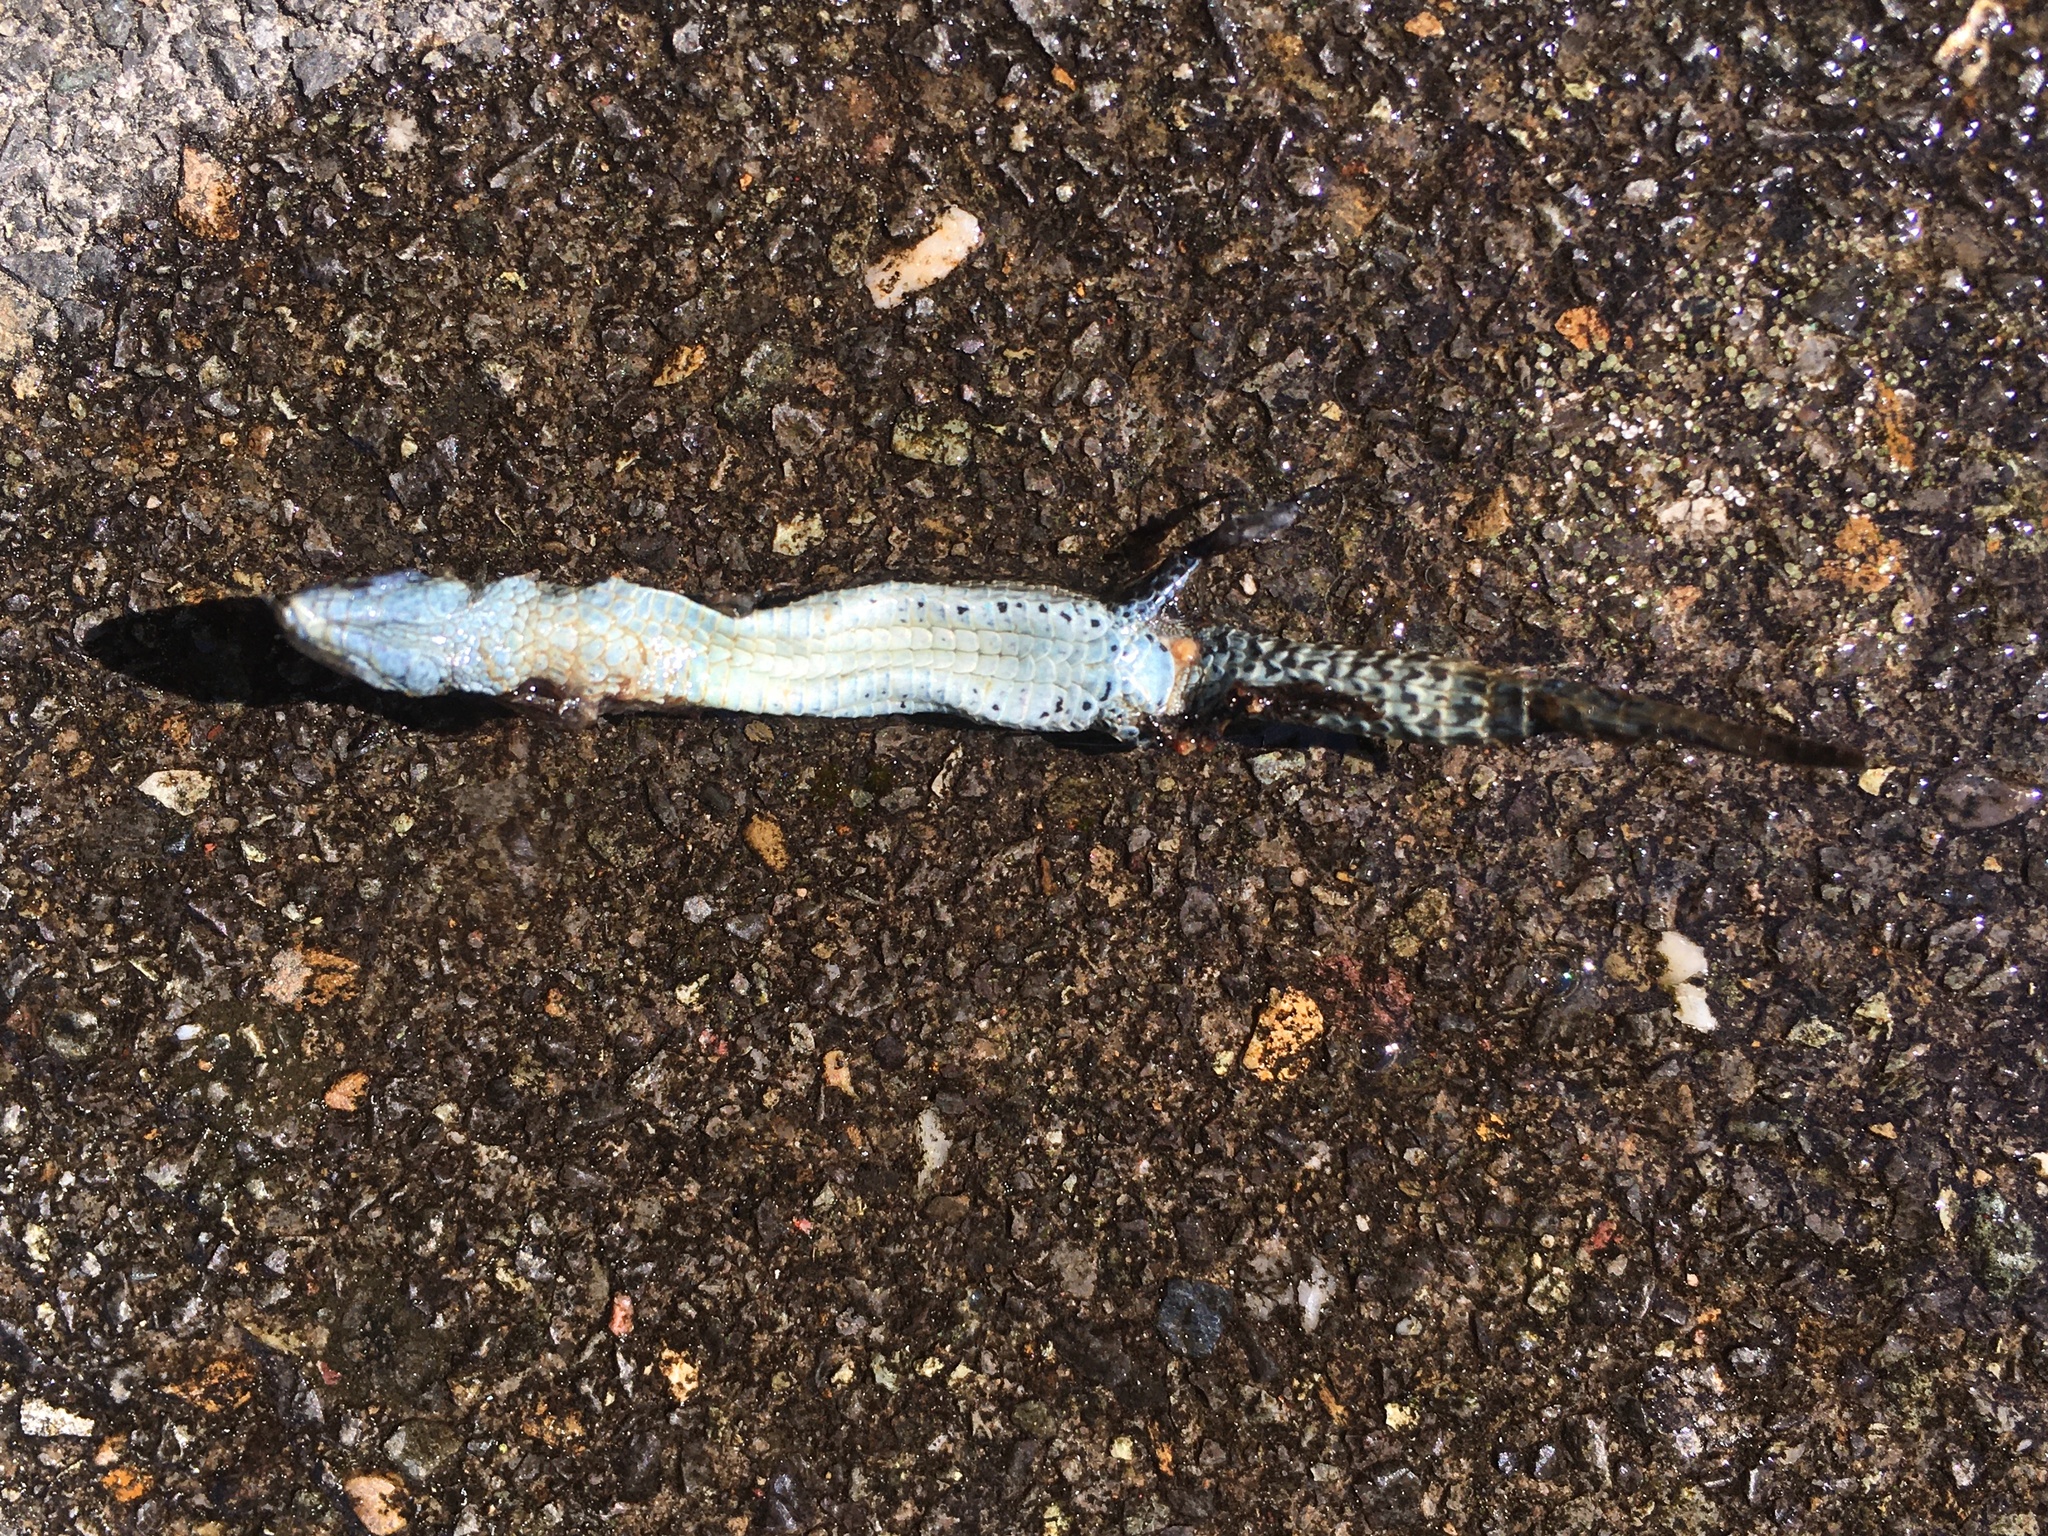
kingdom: Animalia
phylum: Chordata
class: Squamata
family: Lacertidae
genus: Zootoca
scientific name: Zootoca vivipara
